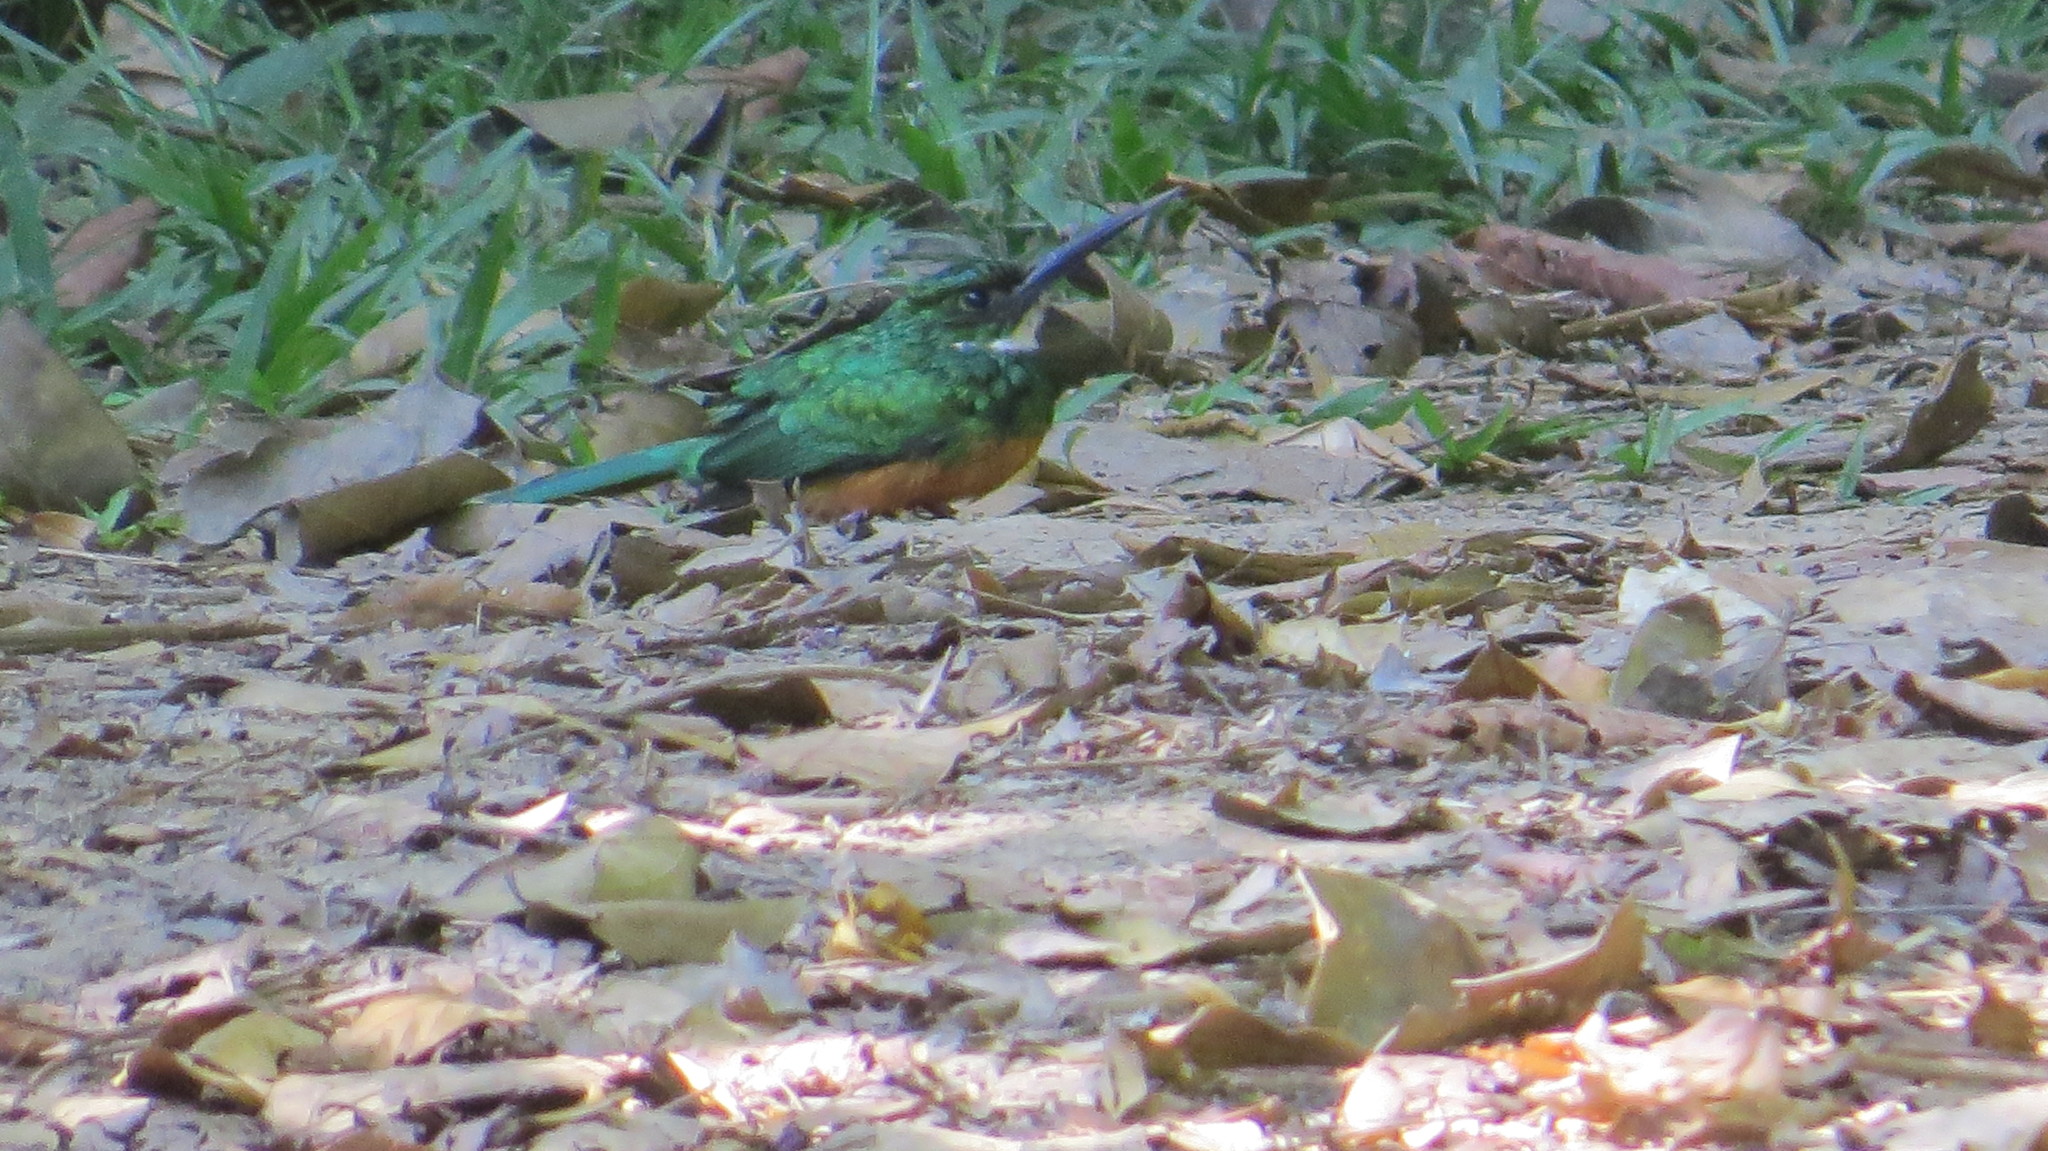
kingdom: Animalia
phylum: Chordata
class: Aves
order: Piciformes
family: Galbulidae
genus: Galbula
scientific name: Galbula ruficauda
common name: Rufous-tailed jacamar
